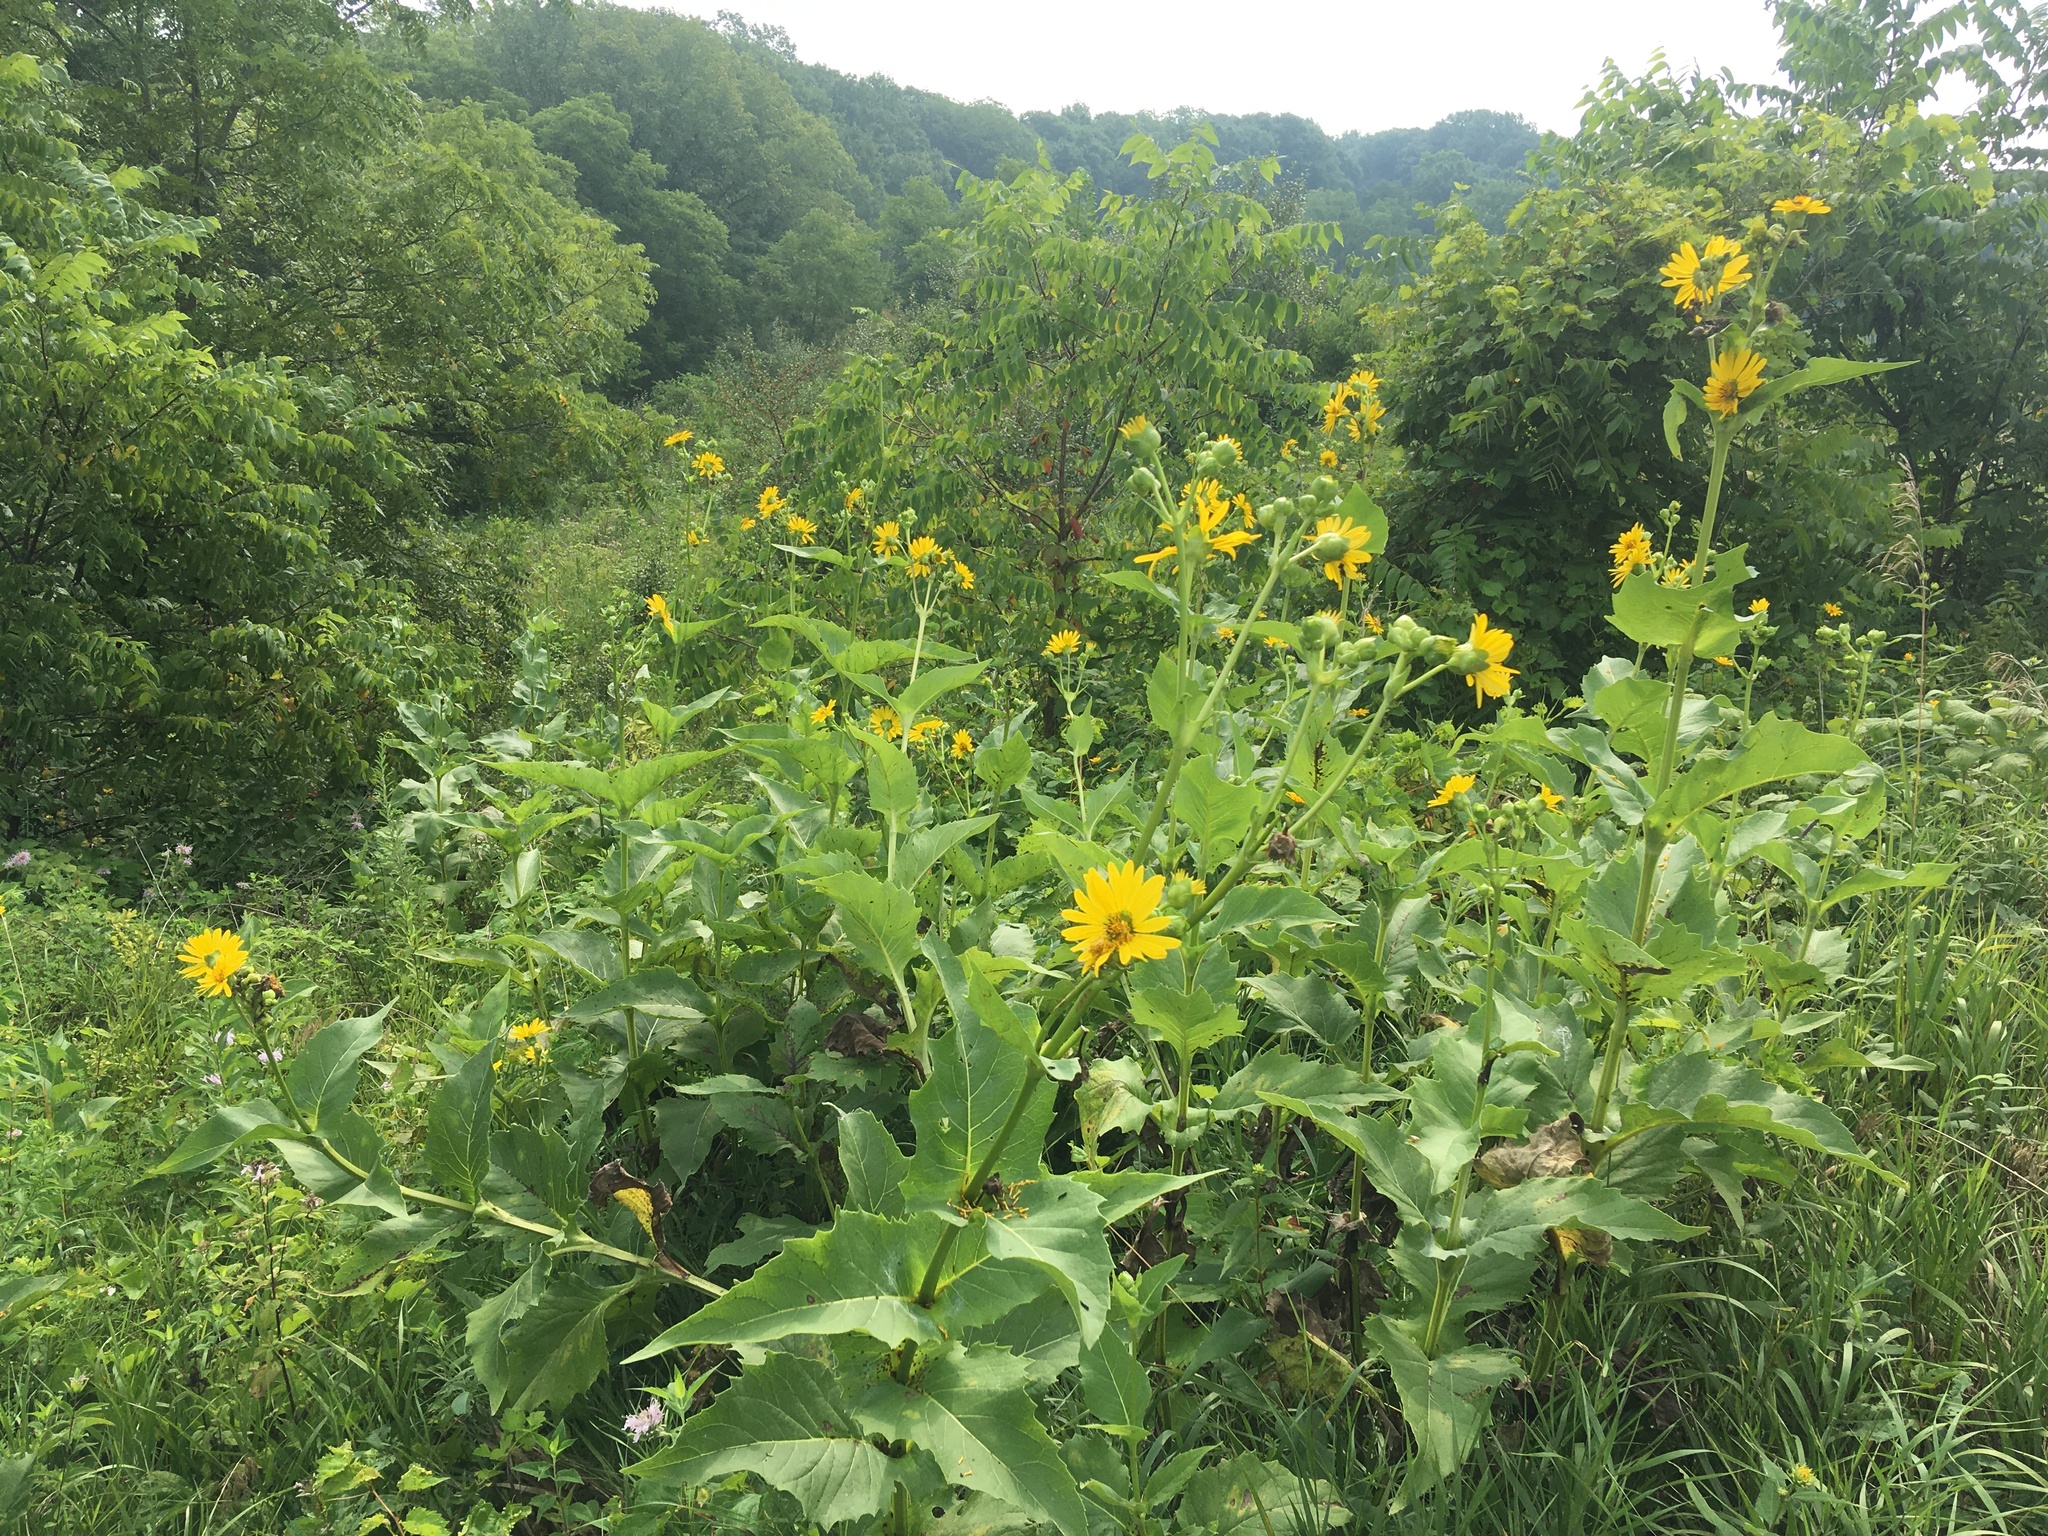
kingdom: Plantae
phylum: Tracheophyta
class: Magnoliopsida
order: Asterales
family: Asteraceae
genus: Silphium
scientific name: Silphium perfoliatum
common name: Cup-plant
